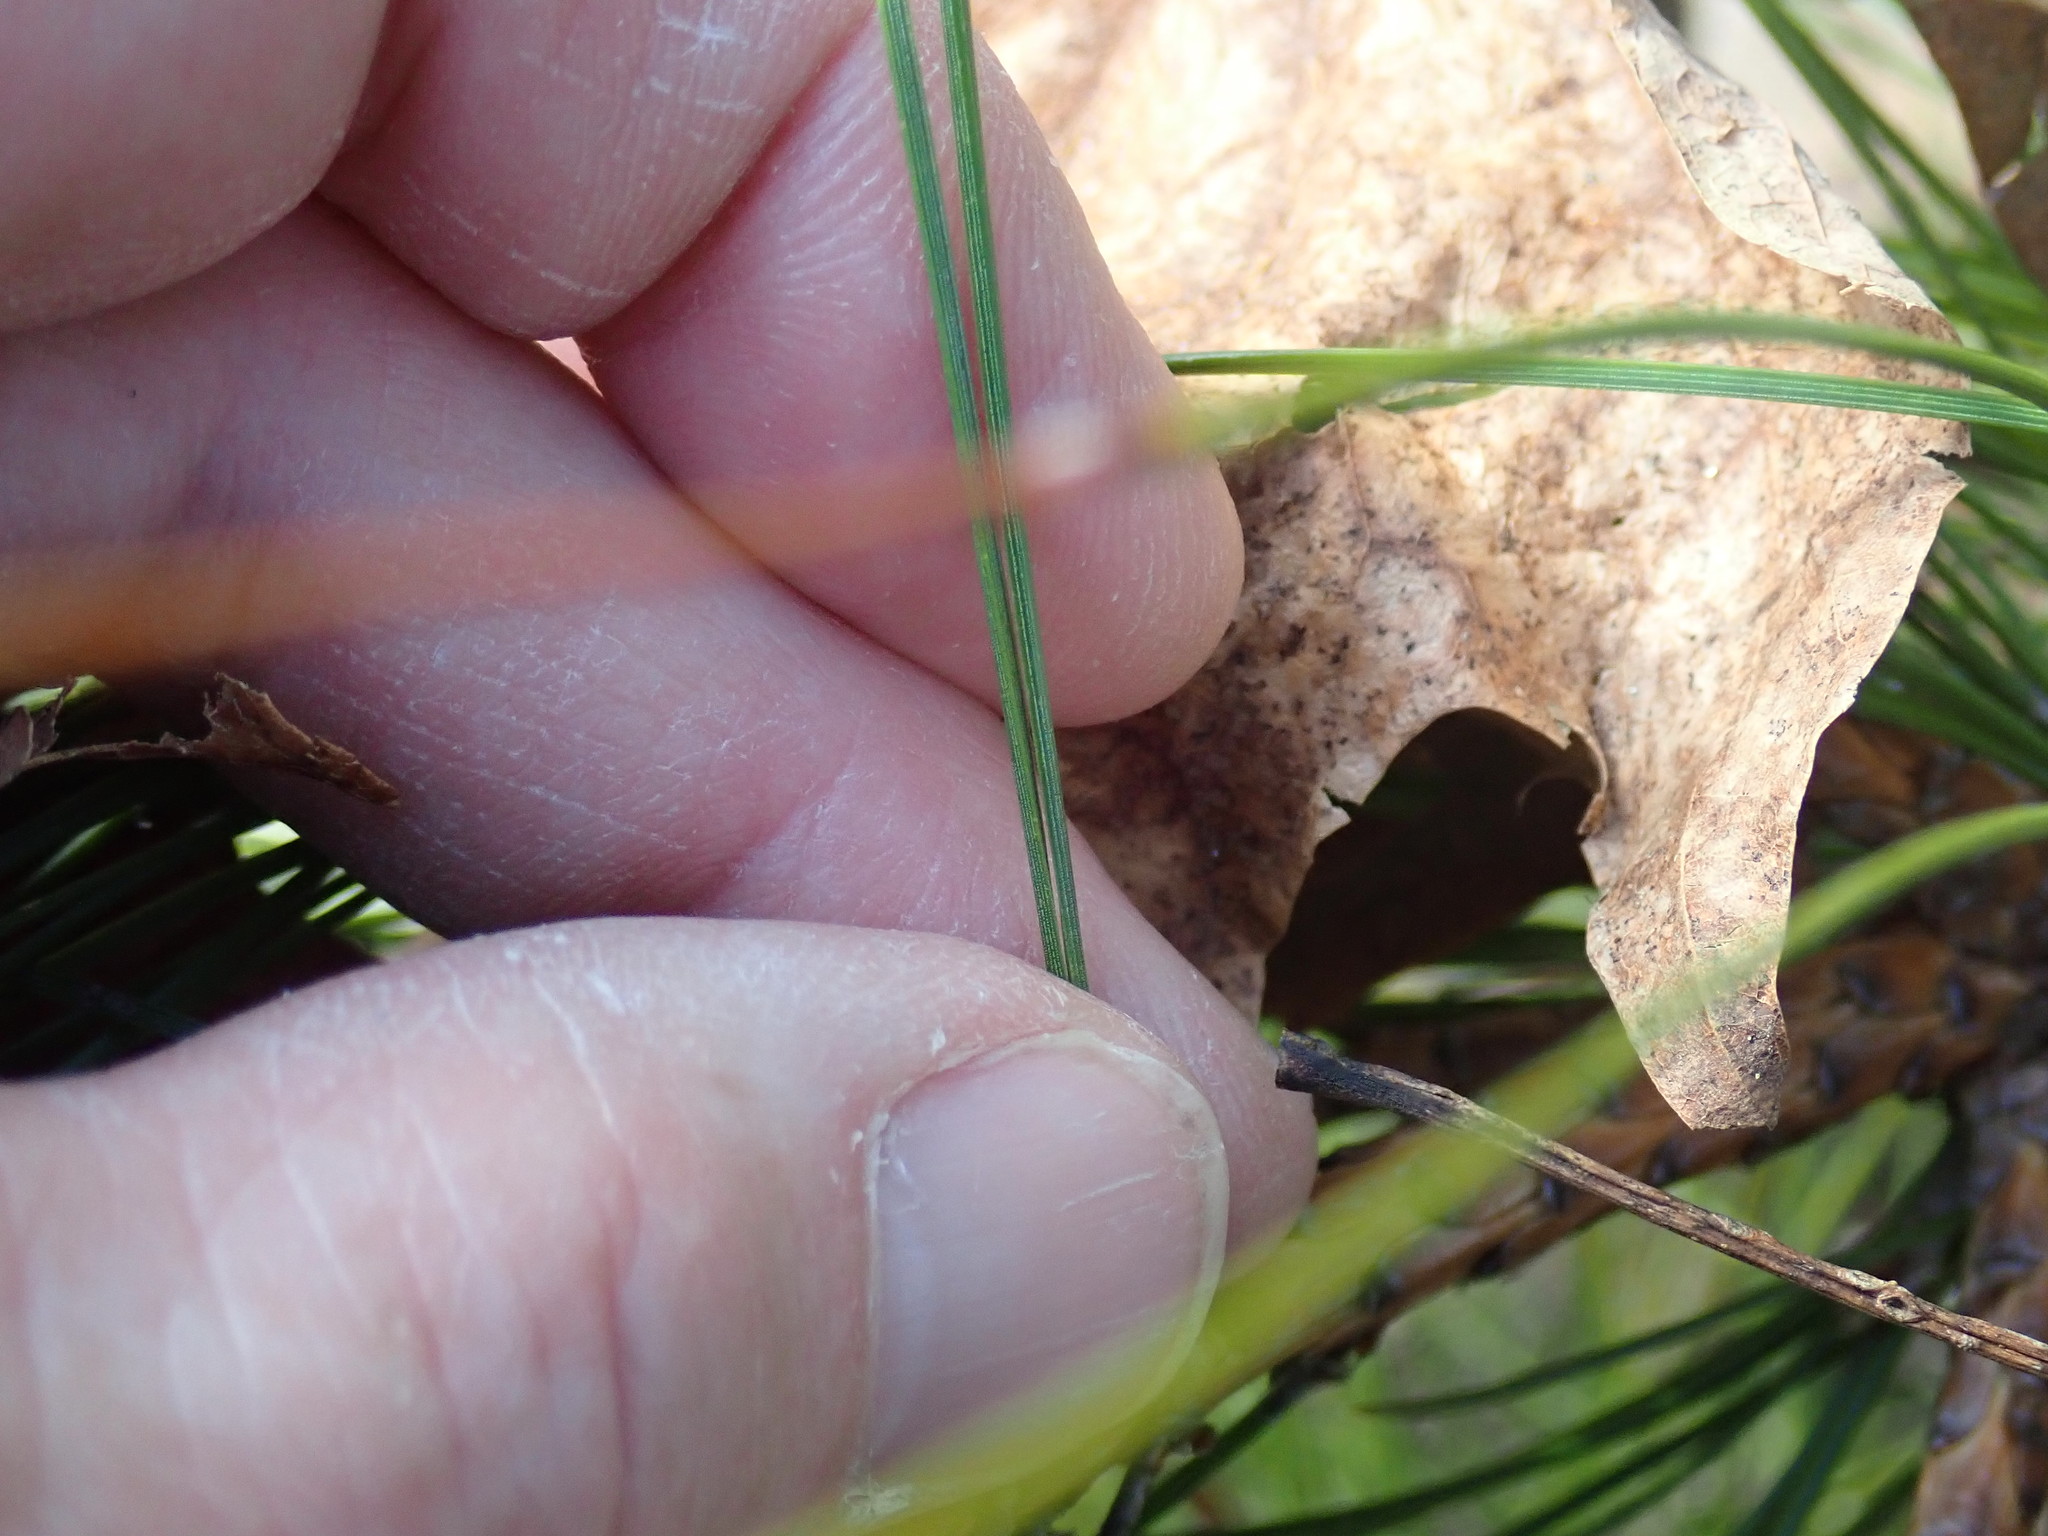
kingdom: Plantae
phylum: Tracheophyta
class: Pinopsida
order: Pinales
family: Pinaceae
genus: Pinus
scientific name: Pinus resinosa
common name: Norway pine
